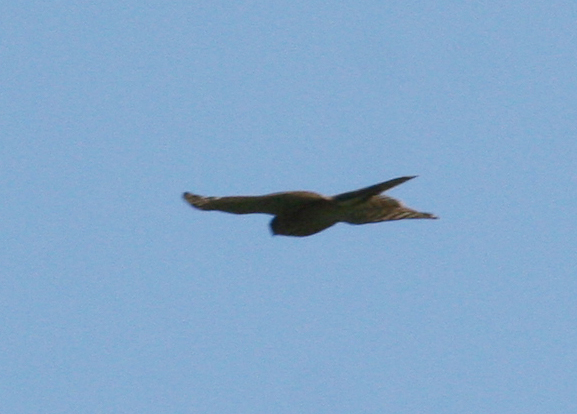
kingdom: Animalia
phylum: Chordata
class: Aves
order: Accipitriformes
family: Accipitridae
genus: Accipiter
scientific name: Accipiter nisus
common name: Eurasian sparrowhawk
